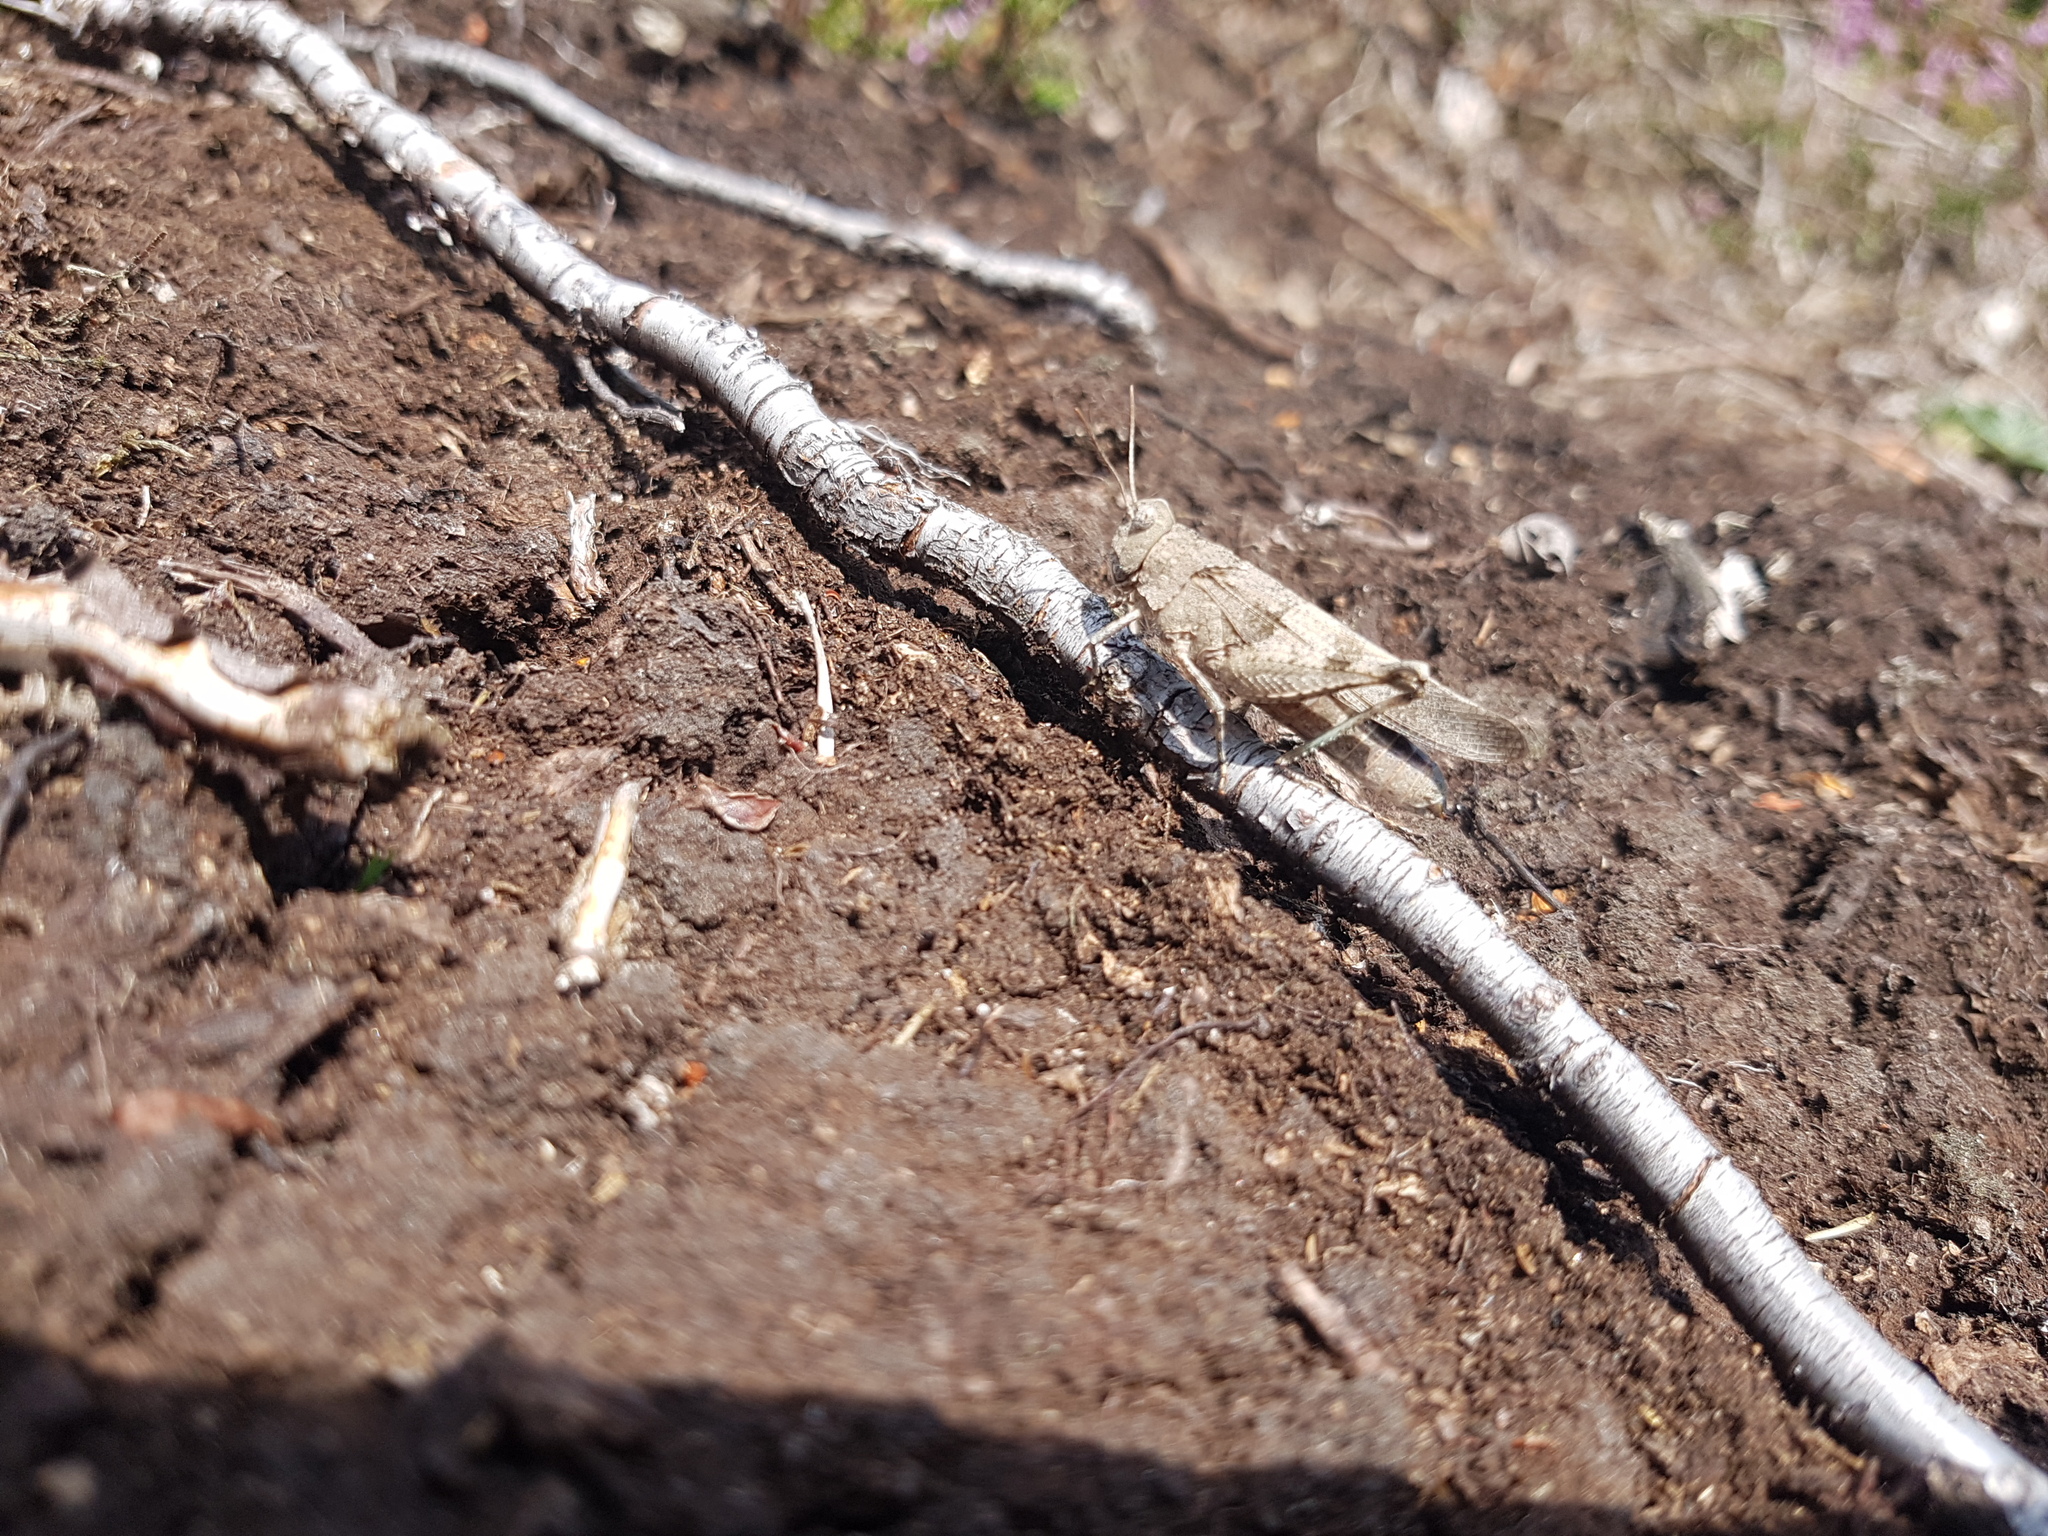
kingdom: Animalia
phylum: Arthropoda
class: Insecta
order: Orthoptera
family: Acrididae
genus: Oedipoda
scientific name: Oedipoda caerulescens
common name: Blue-winged grasshopper
